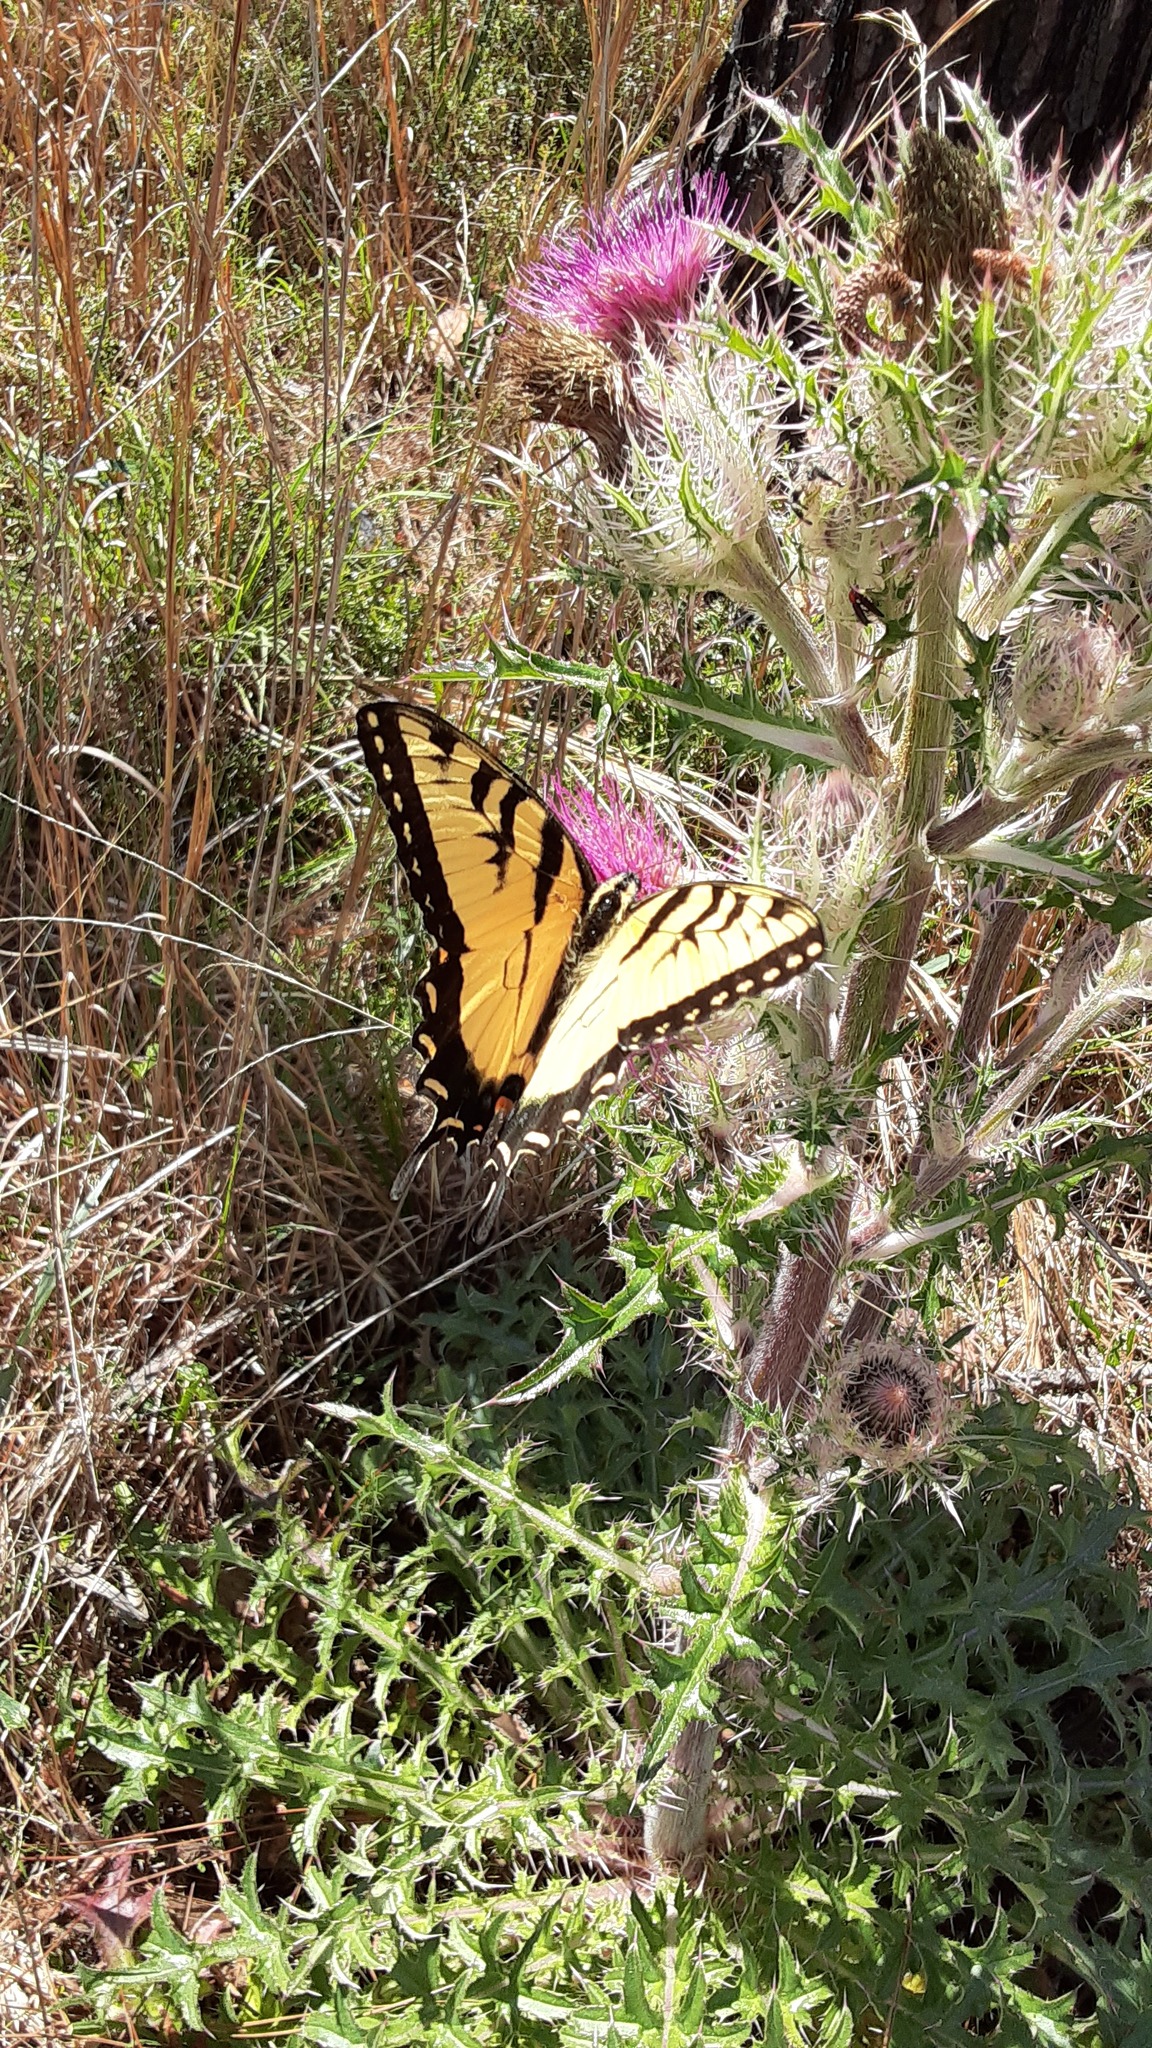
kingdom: Animalia
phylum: Arthropoda
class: Insecta
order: Lepidoptera
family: Papilionidae
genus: Papilio
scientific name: Papilio glaucus
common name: Tiger swallowtail
